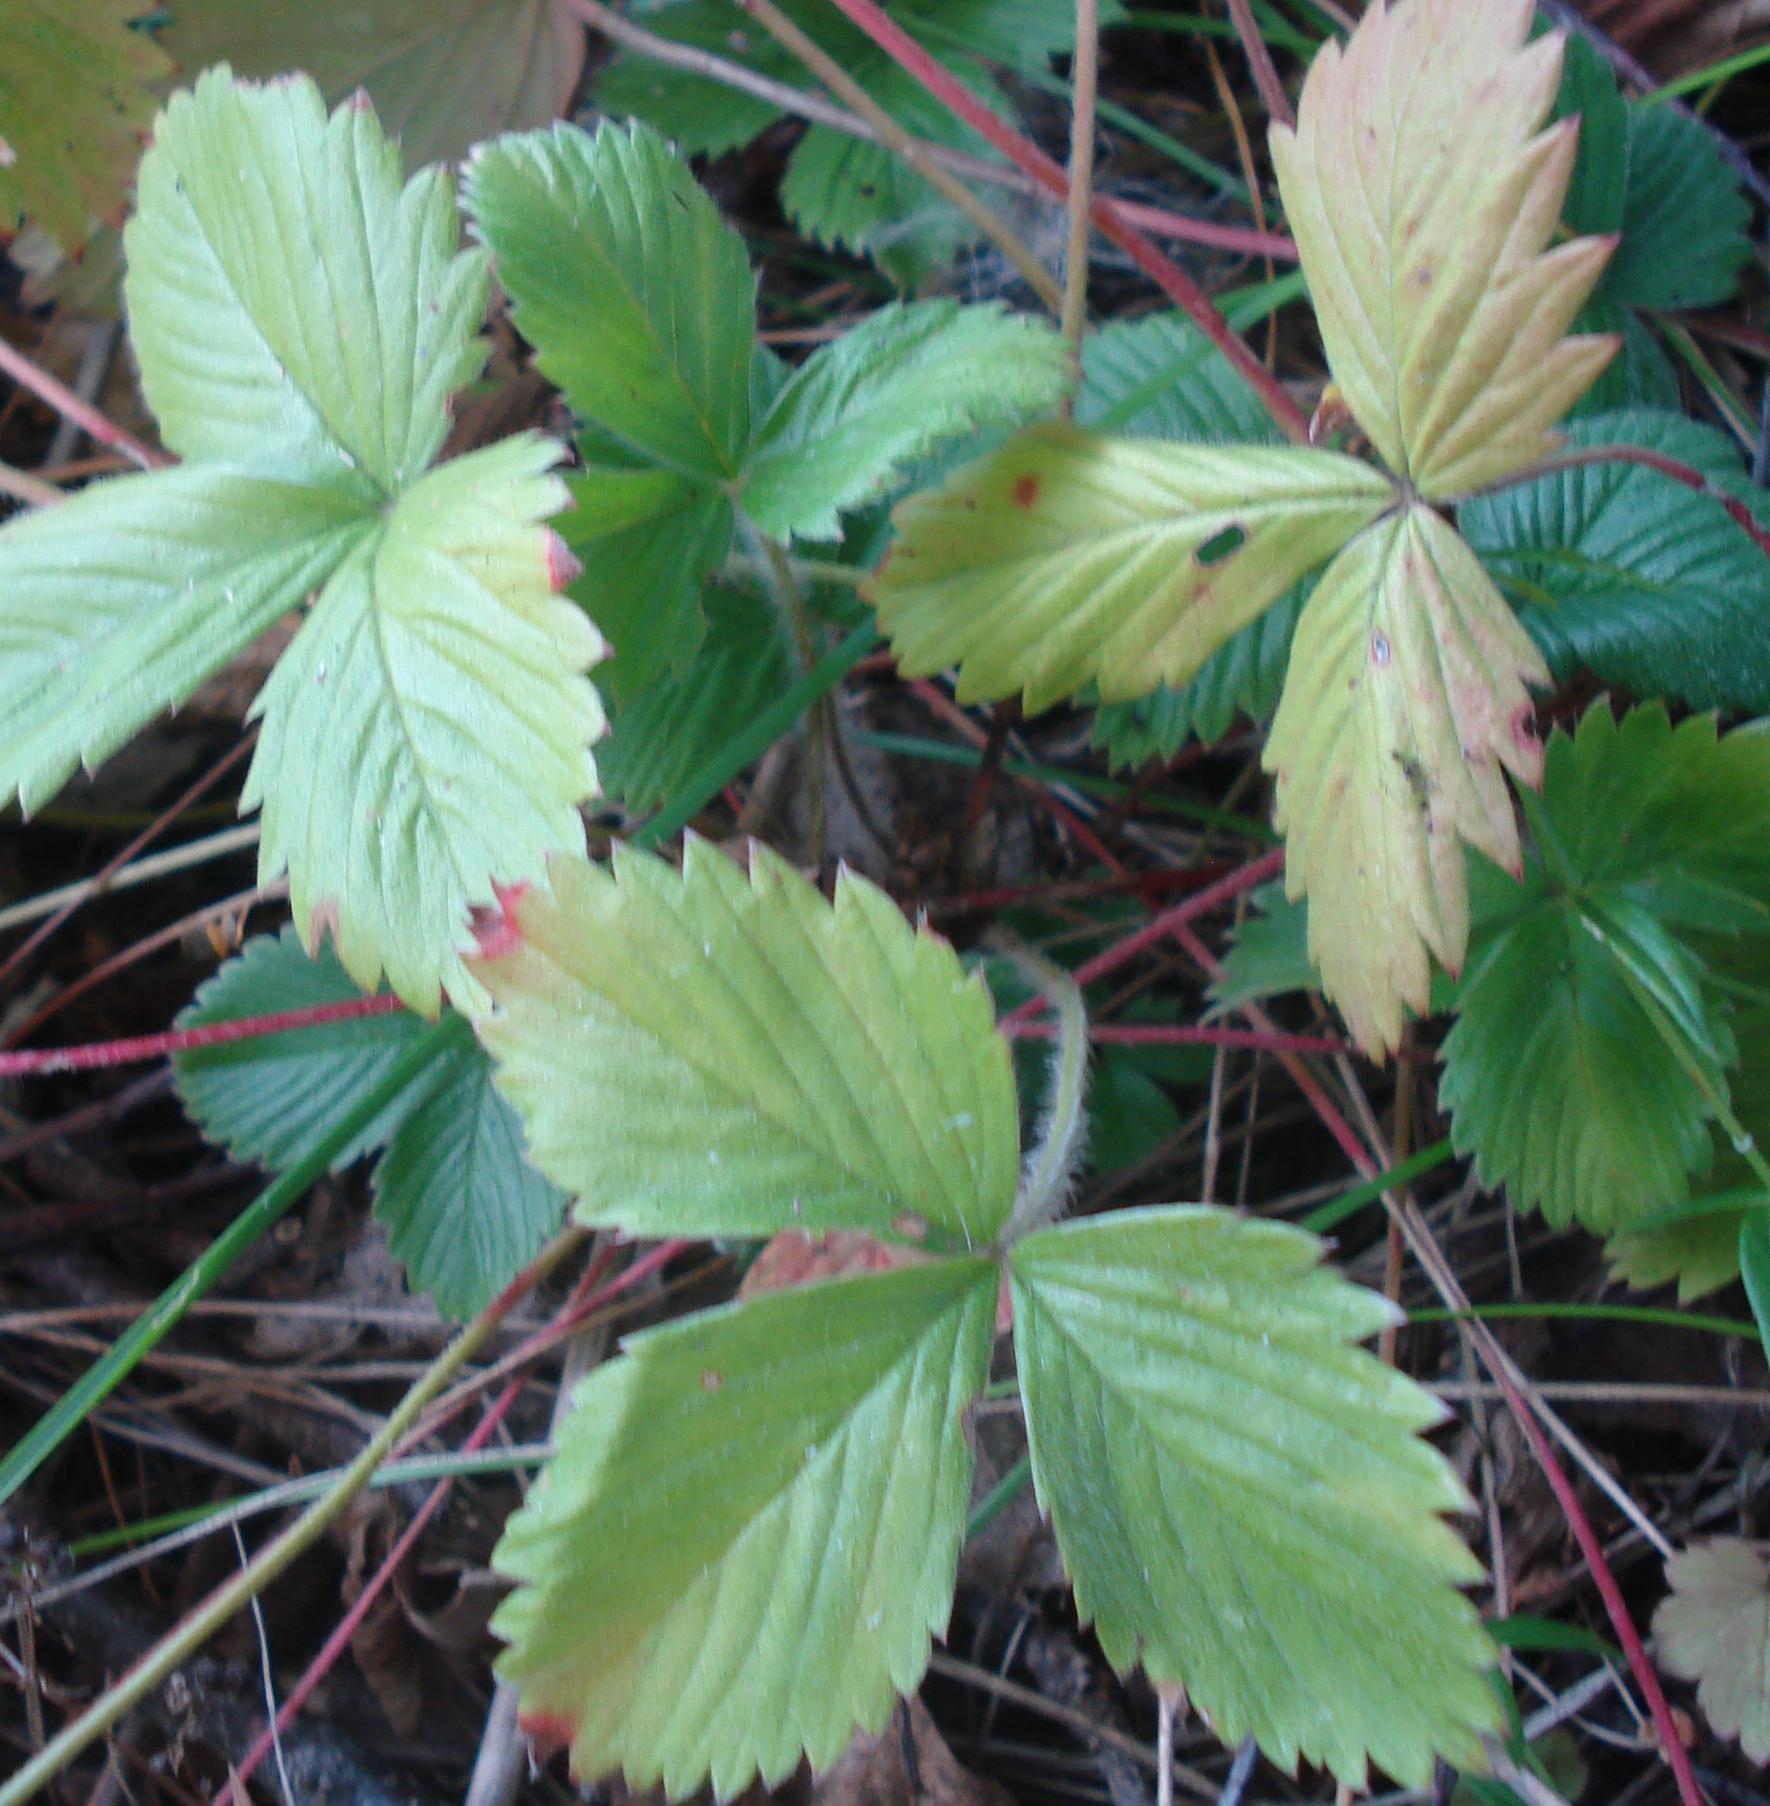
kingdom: Plantae
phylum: Tracheophyta
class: Magnoliopsida
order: Rosales
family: Rosaceae
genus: Fragaria
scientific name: Fragaria vesca
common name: Wild strawberry
